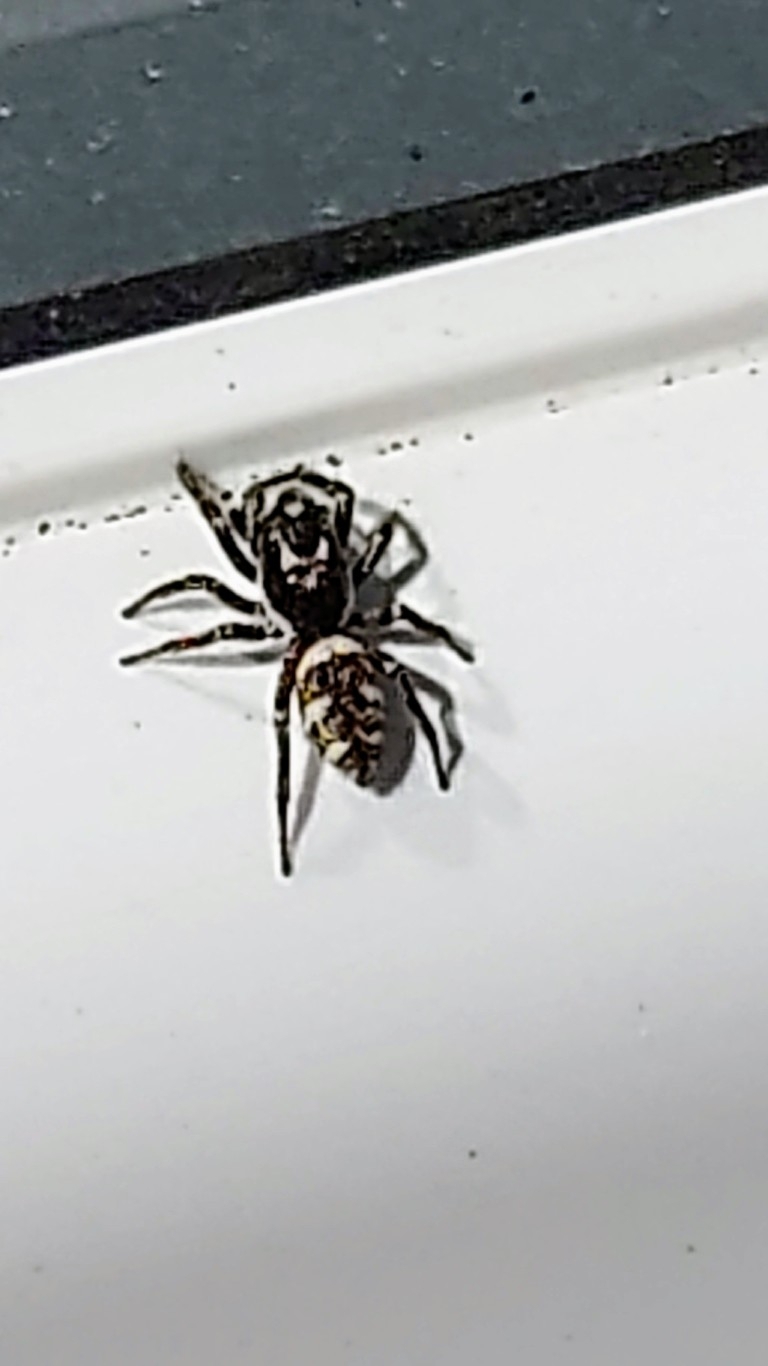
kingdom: Animalia
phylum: Arthropoda
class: Arachnida
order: Araneae
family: Salticidae
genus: Salticus
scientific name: Salticus scenicus
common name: Zebra jumper
